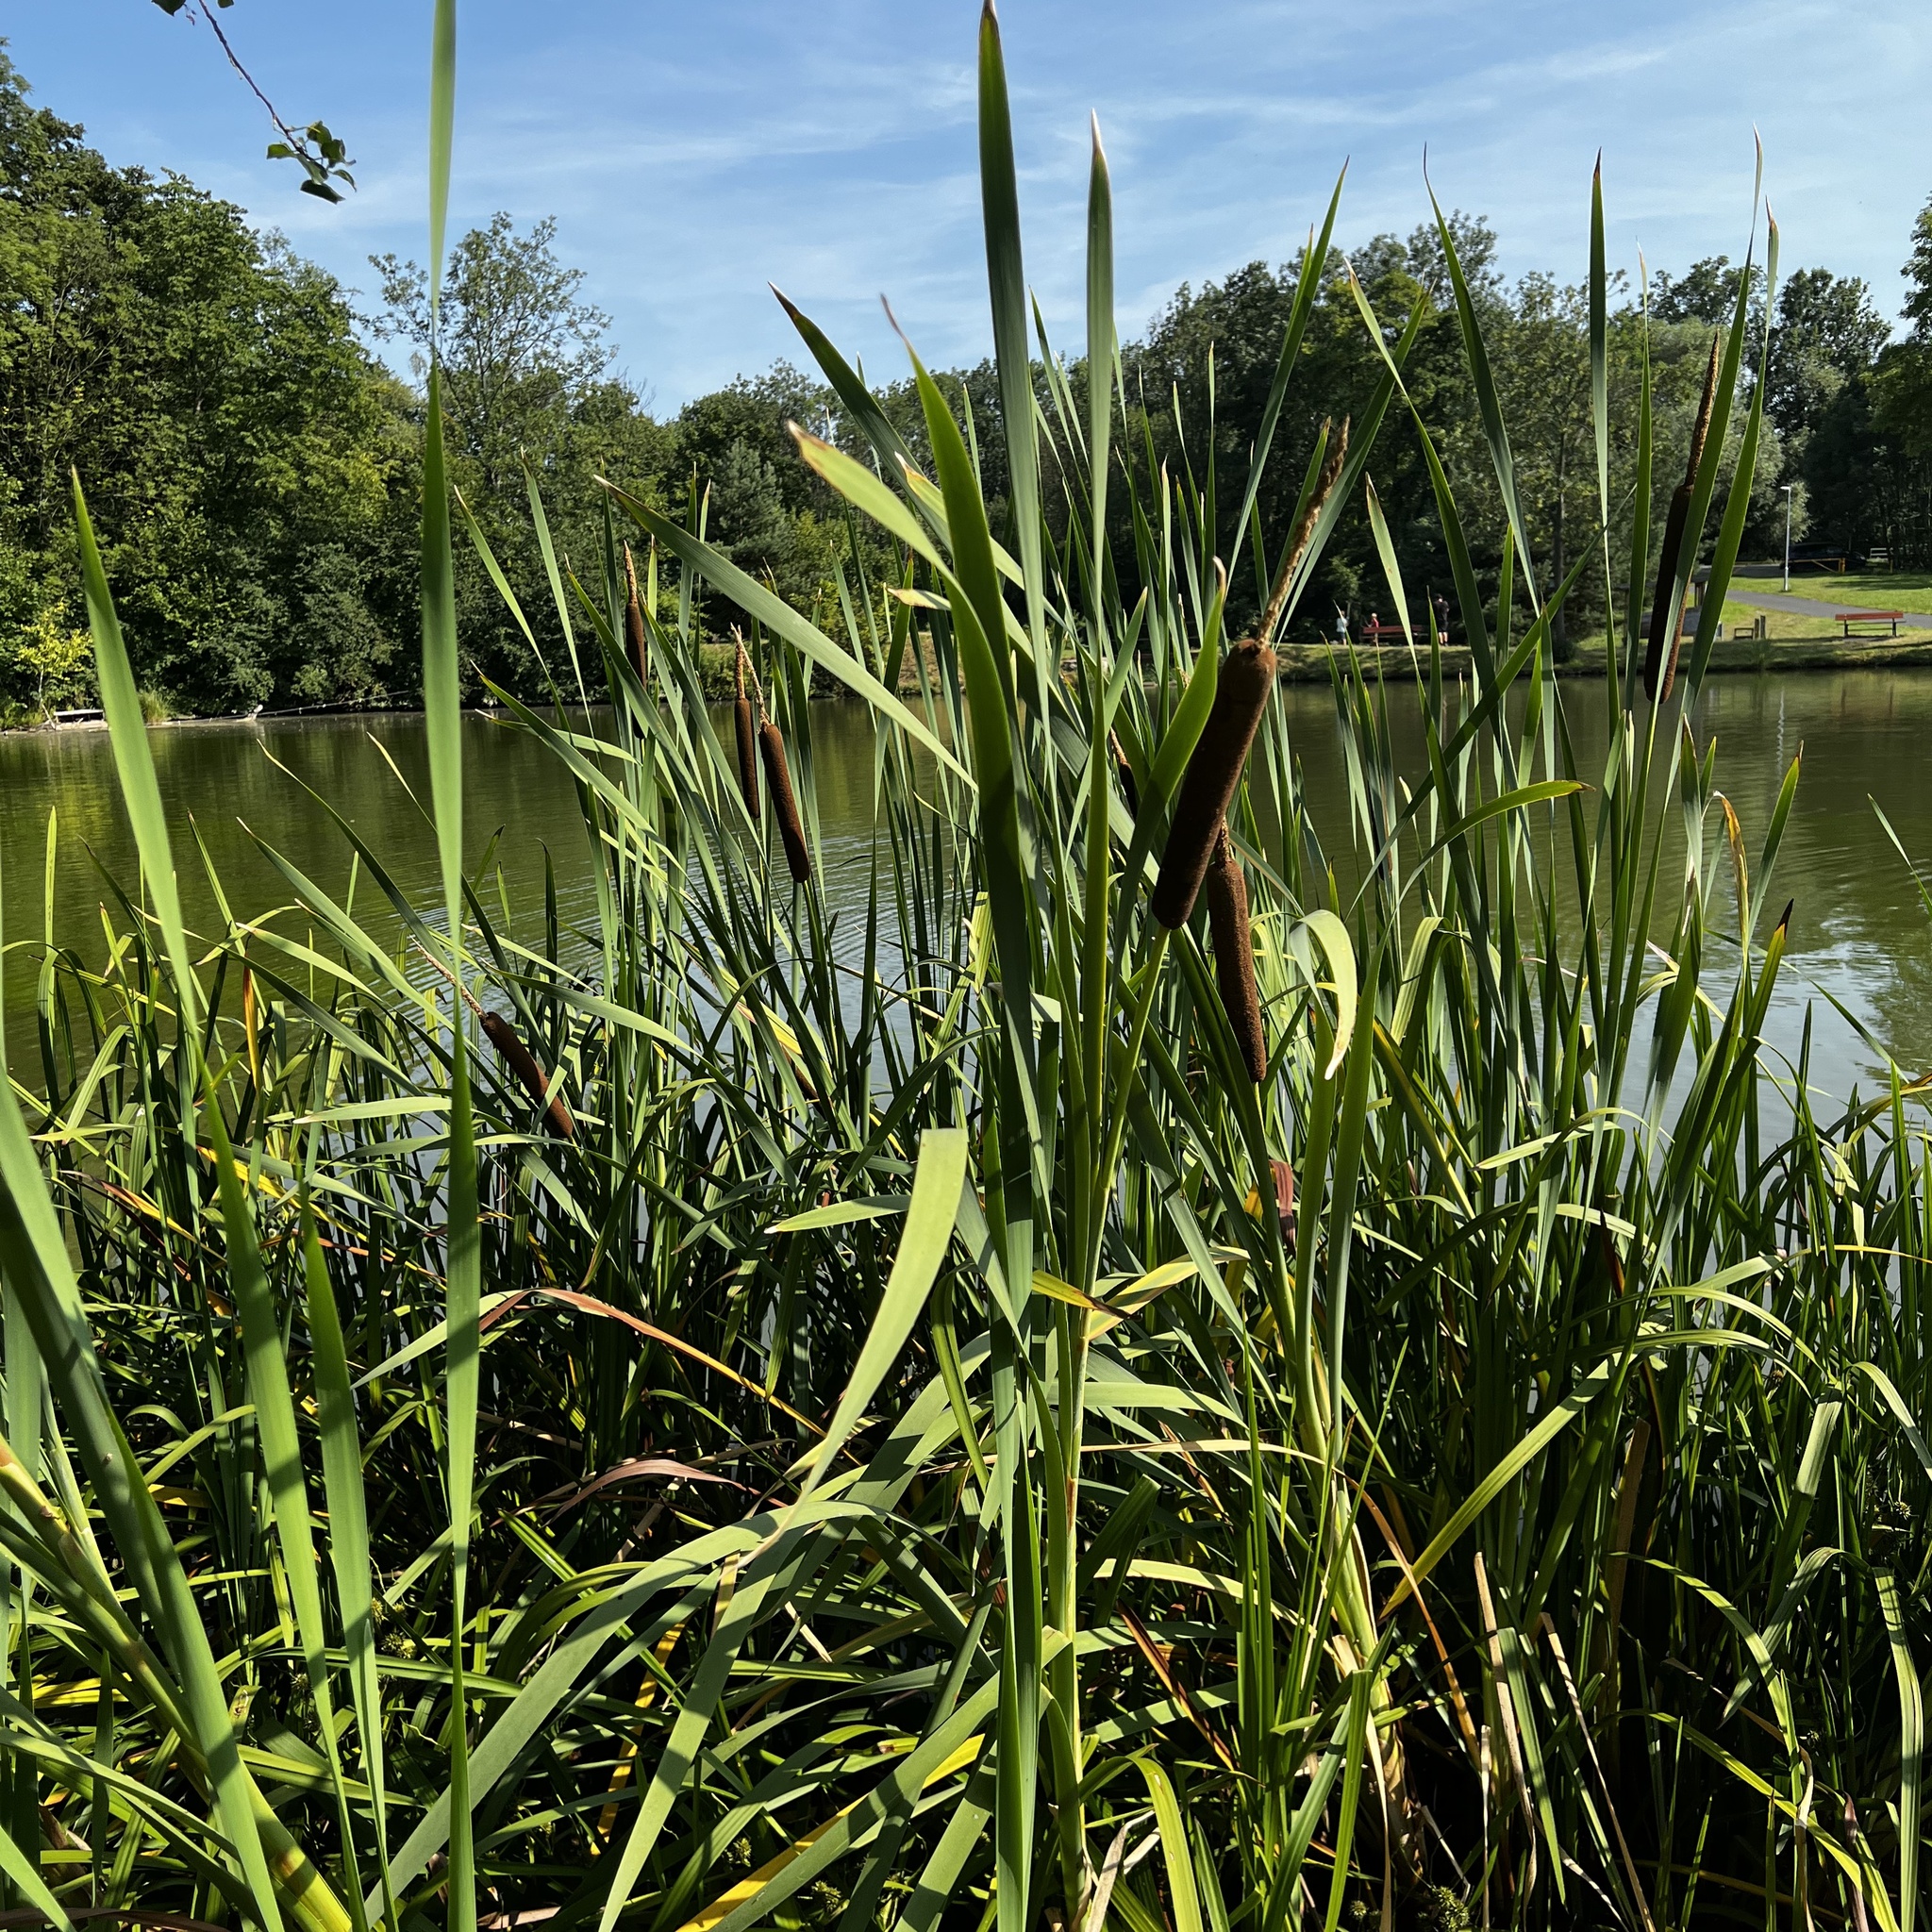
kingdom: Plantae
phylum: Tracheophyta
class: Liliopsida
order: Poales
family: Typhaceae
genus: Typha
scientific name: Typha latifolia
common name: Broadleaf cattail
